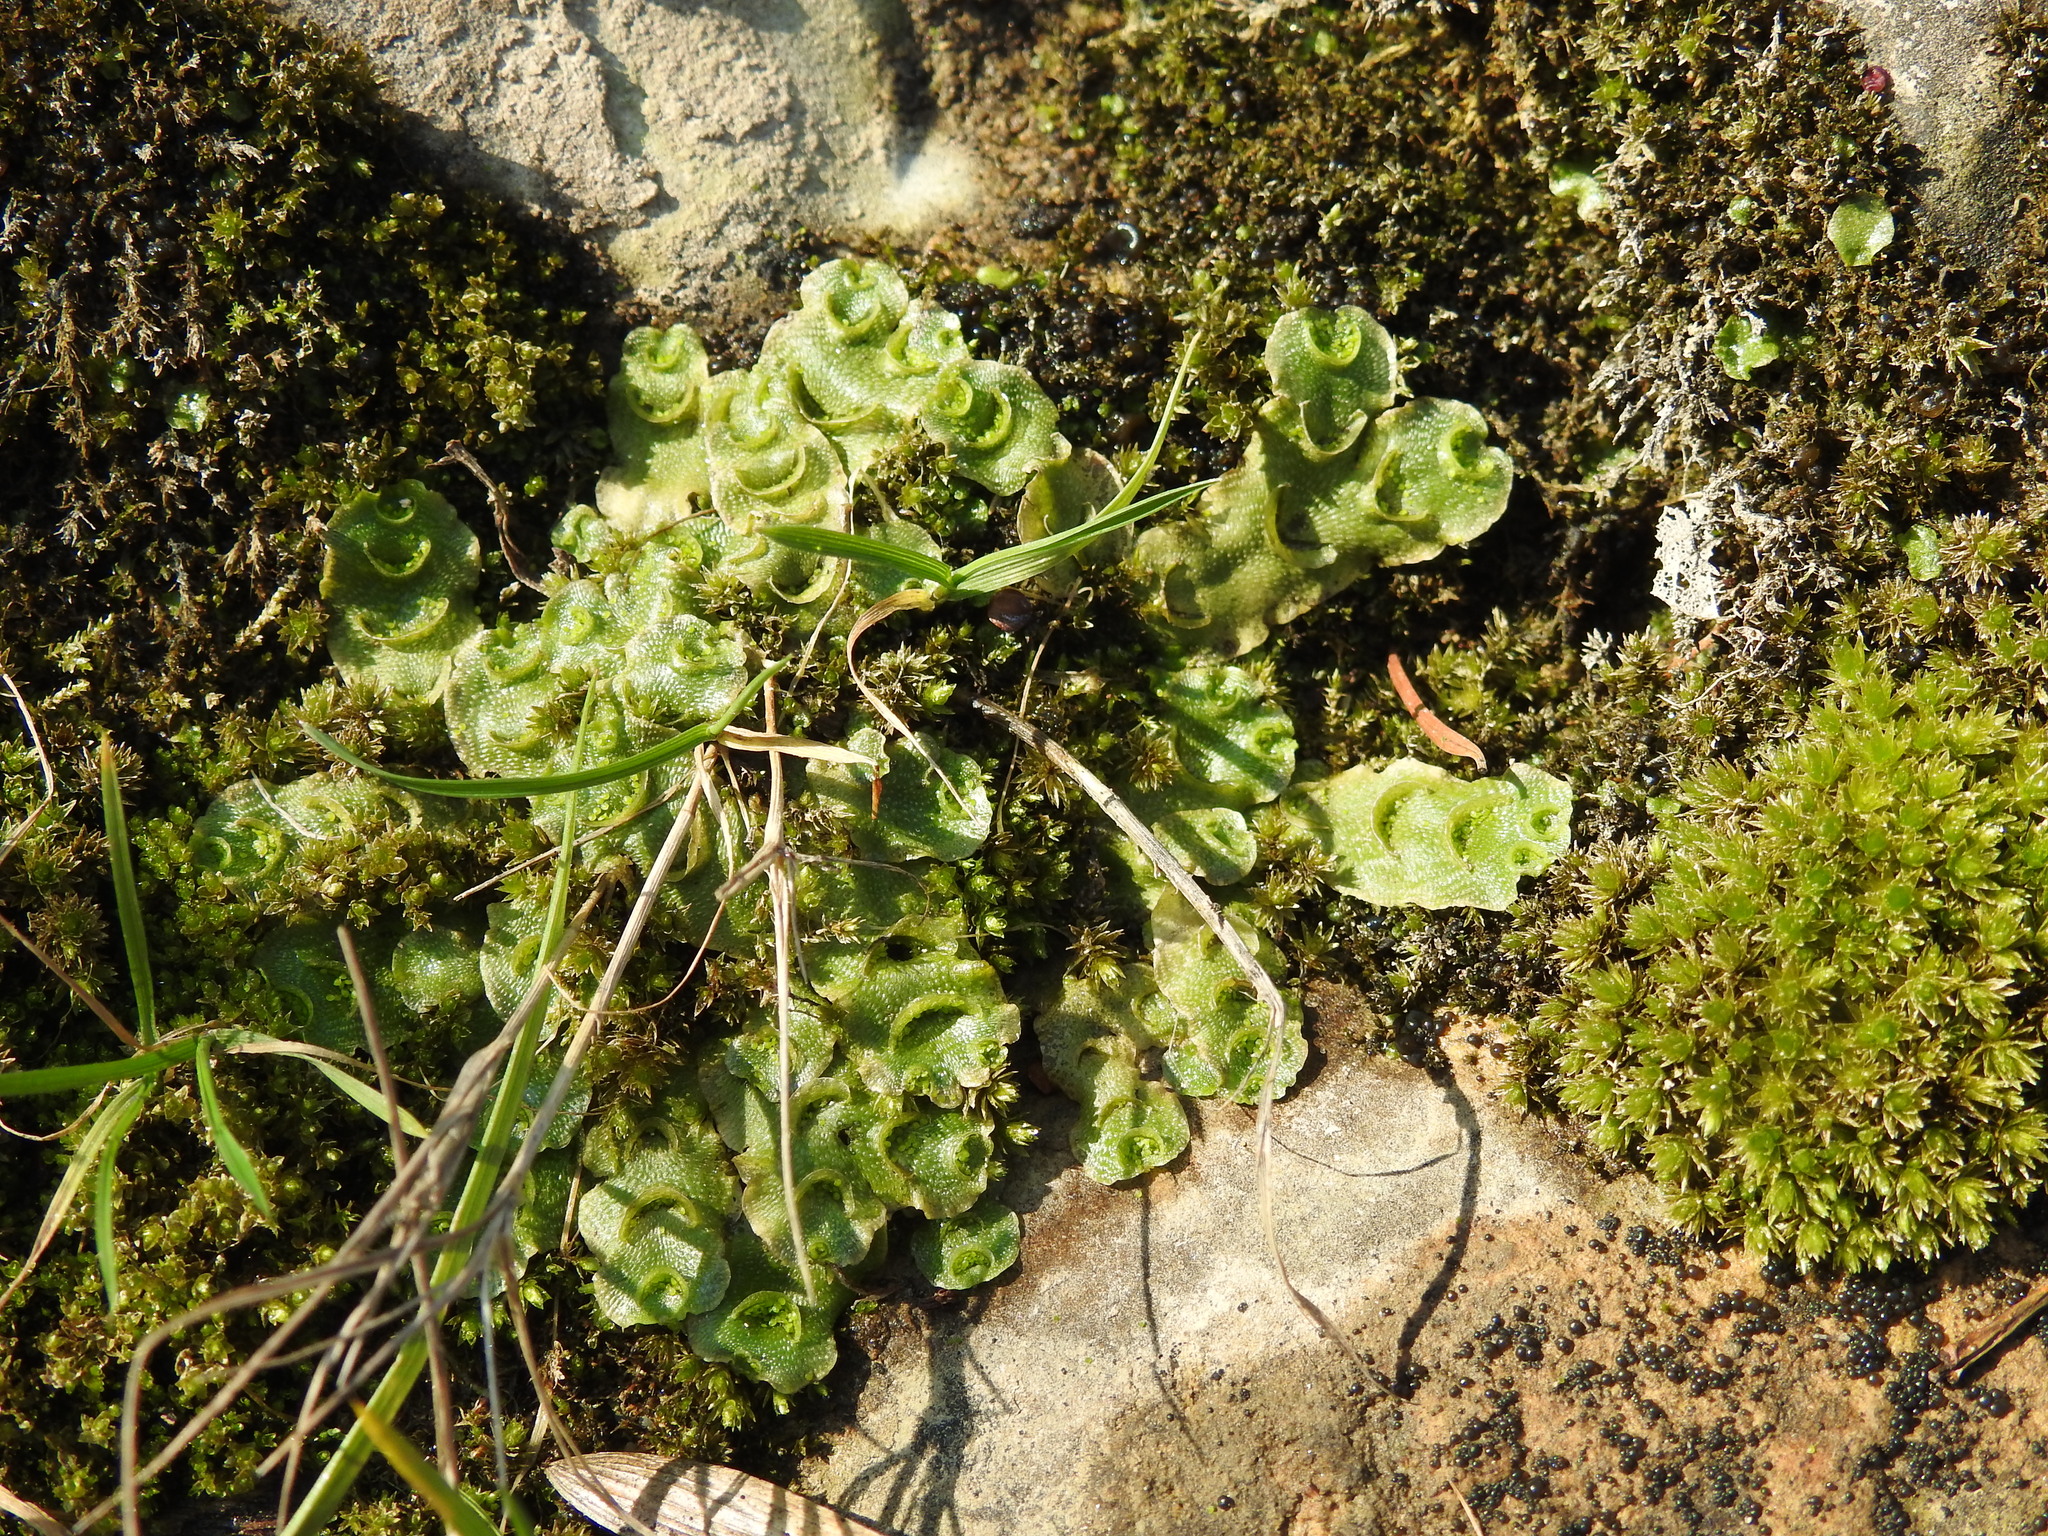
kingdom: Plantae
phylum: Marchantiophyta
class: Marchantiopsida
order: Lunulariales
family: Lunulariaceae
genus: Lunularia
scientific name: Lunularia cruciata
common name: Crescent-cup liverwort
